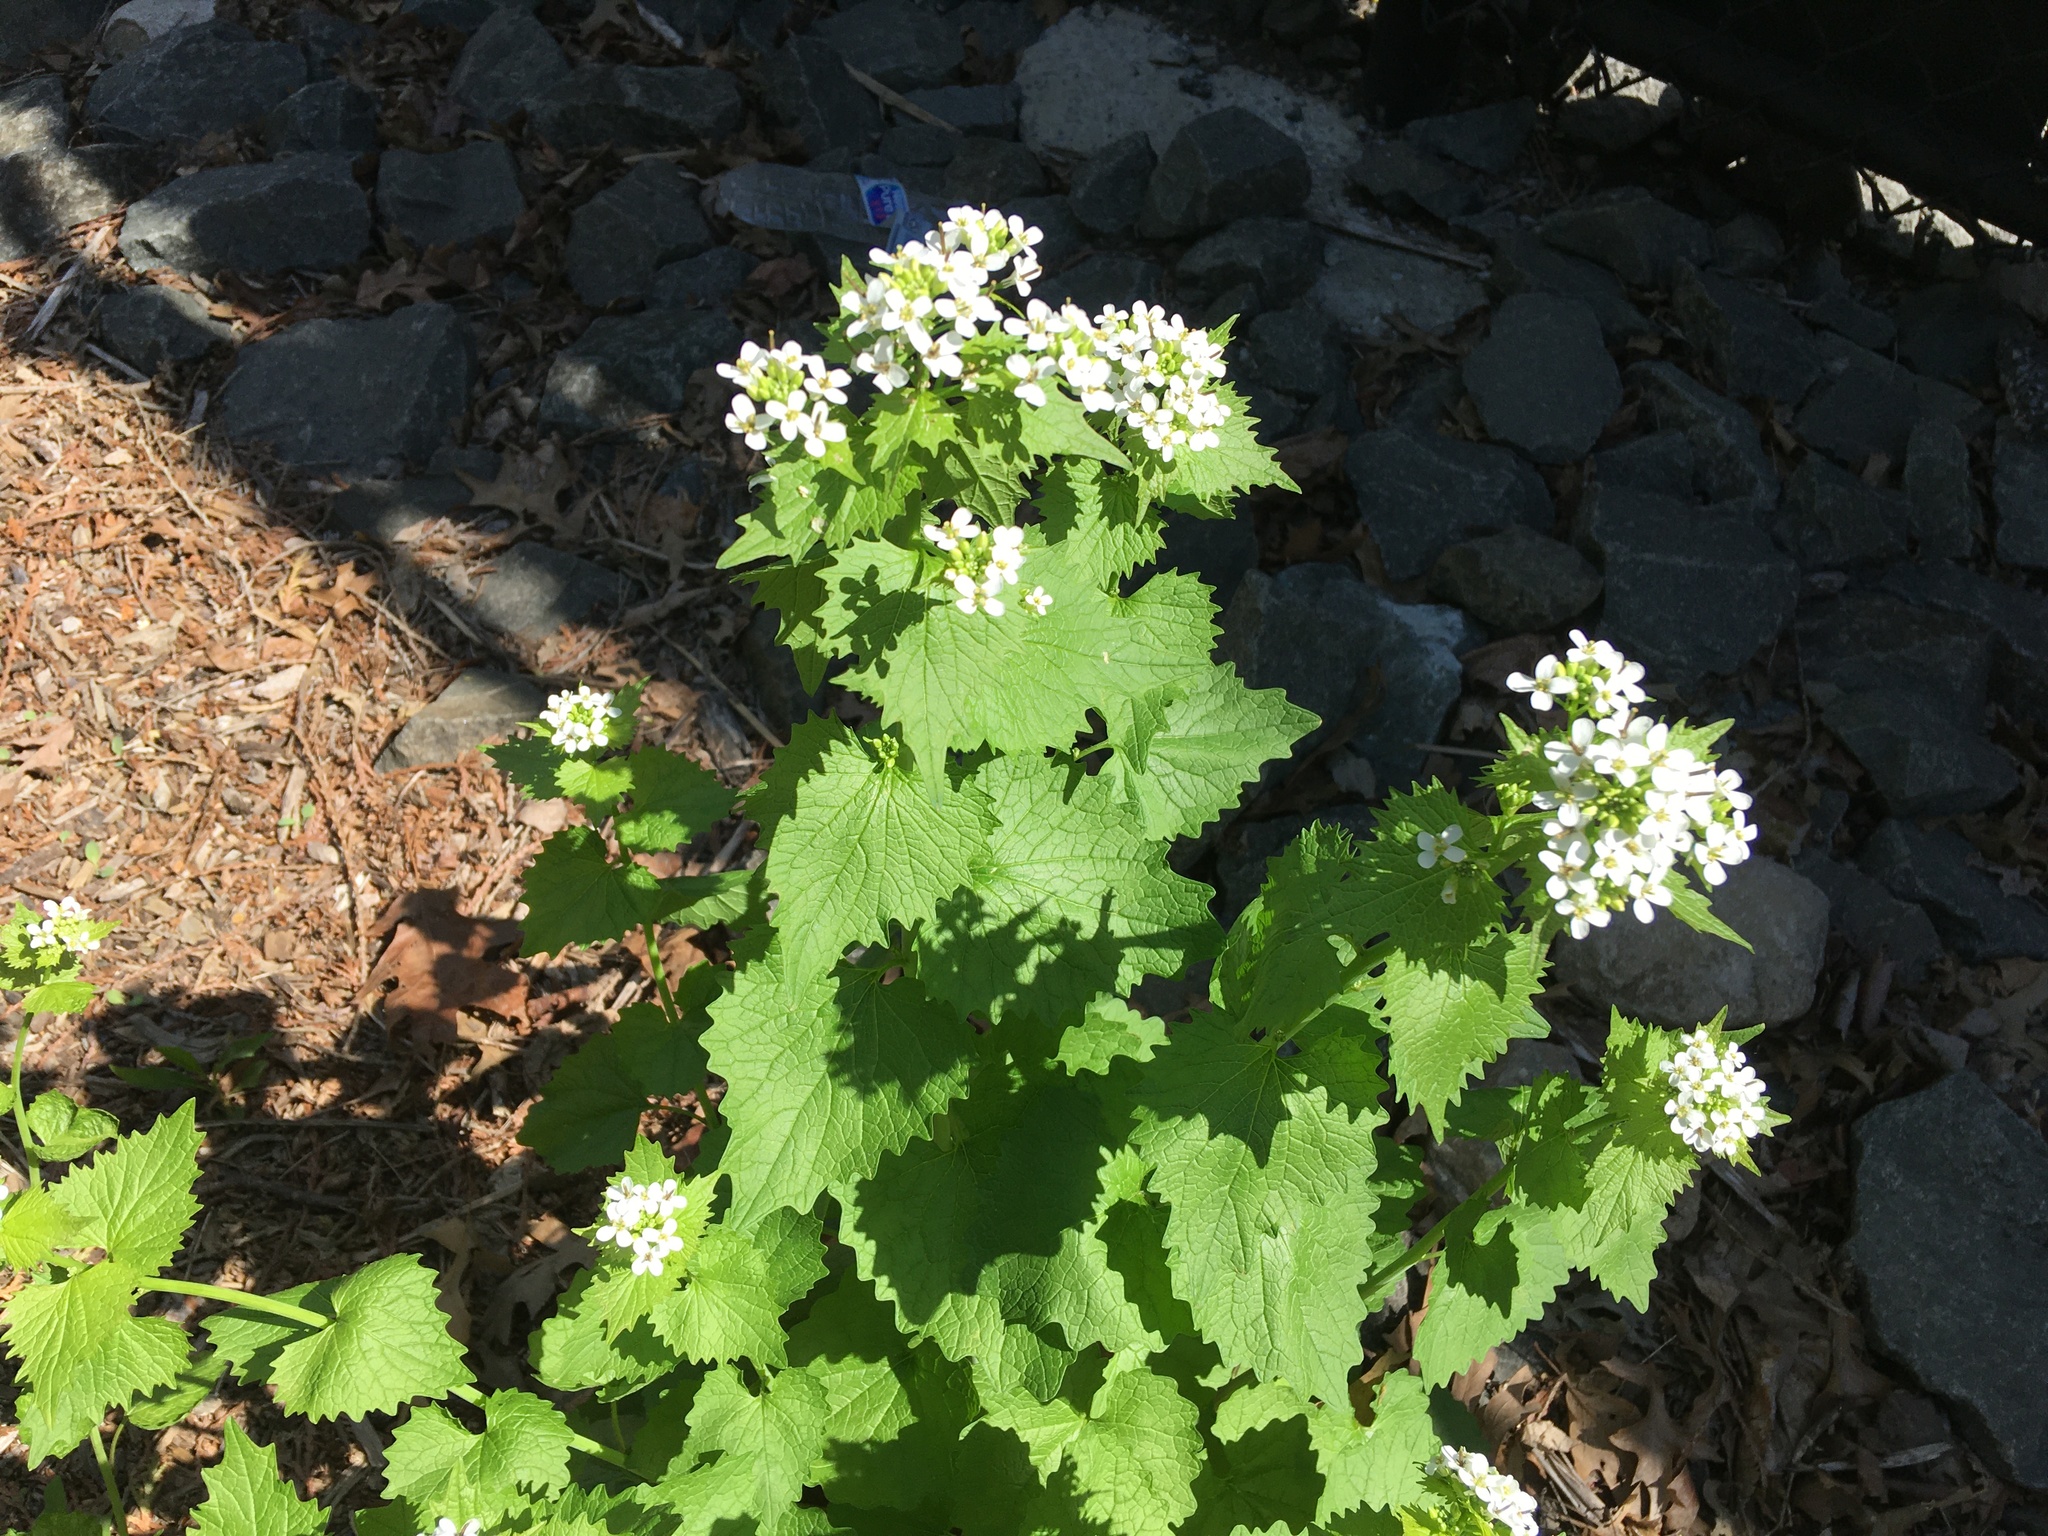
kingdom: Plantae
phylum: Tracheophyta
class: Magnoliopsida
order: Brassicales
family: Brassicaceae
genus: Alliaria
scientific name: Alliaria petiolata
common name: Garlic mustard
